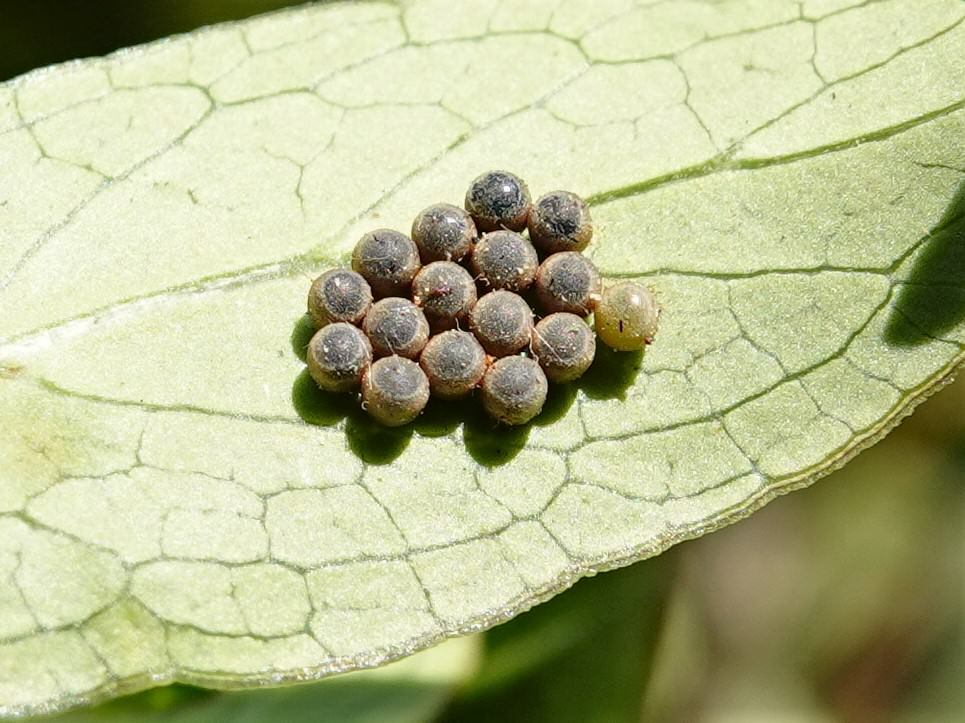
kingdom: Animalia
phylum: Arthropoda
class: Insecta
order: Hemiptera
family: Pentatomidae
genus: Glaucias
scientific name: Glaucias amyota
